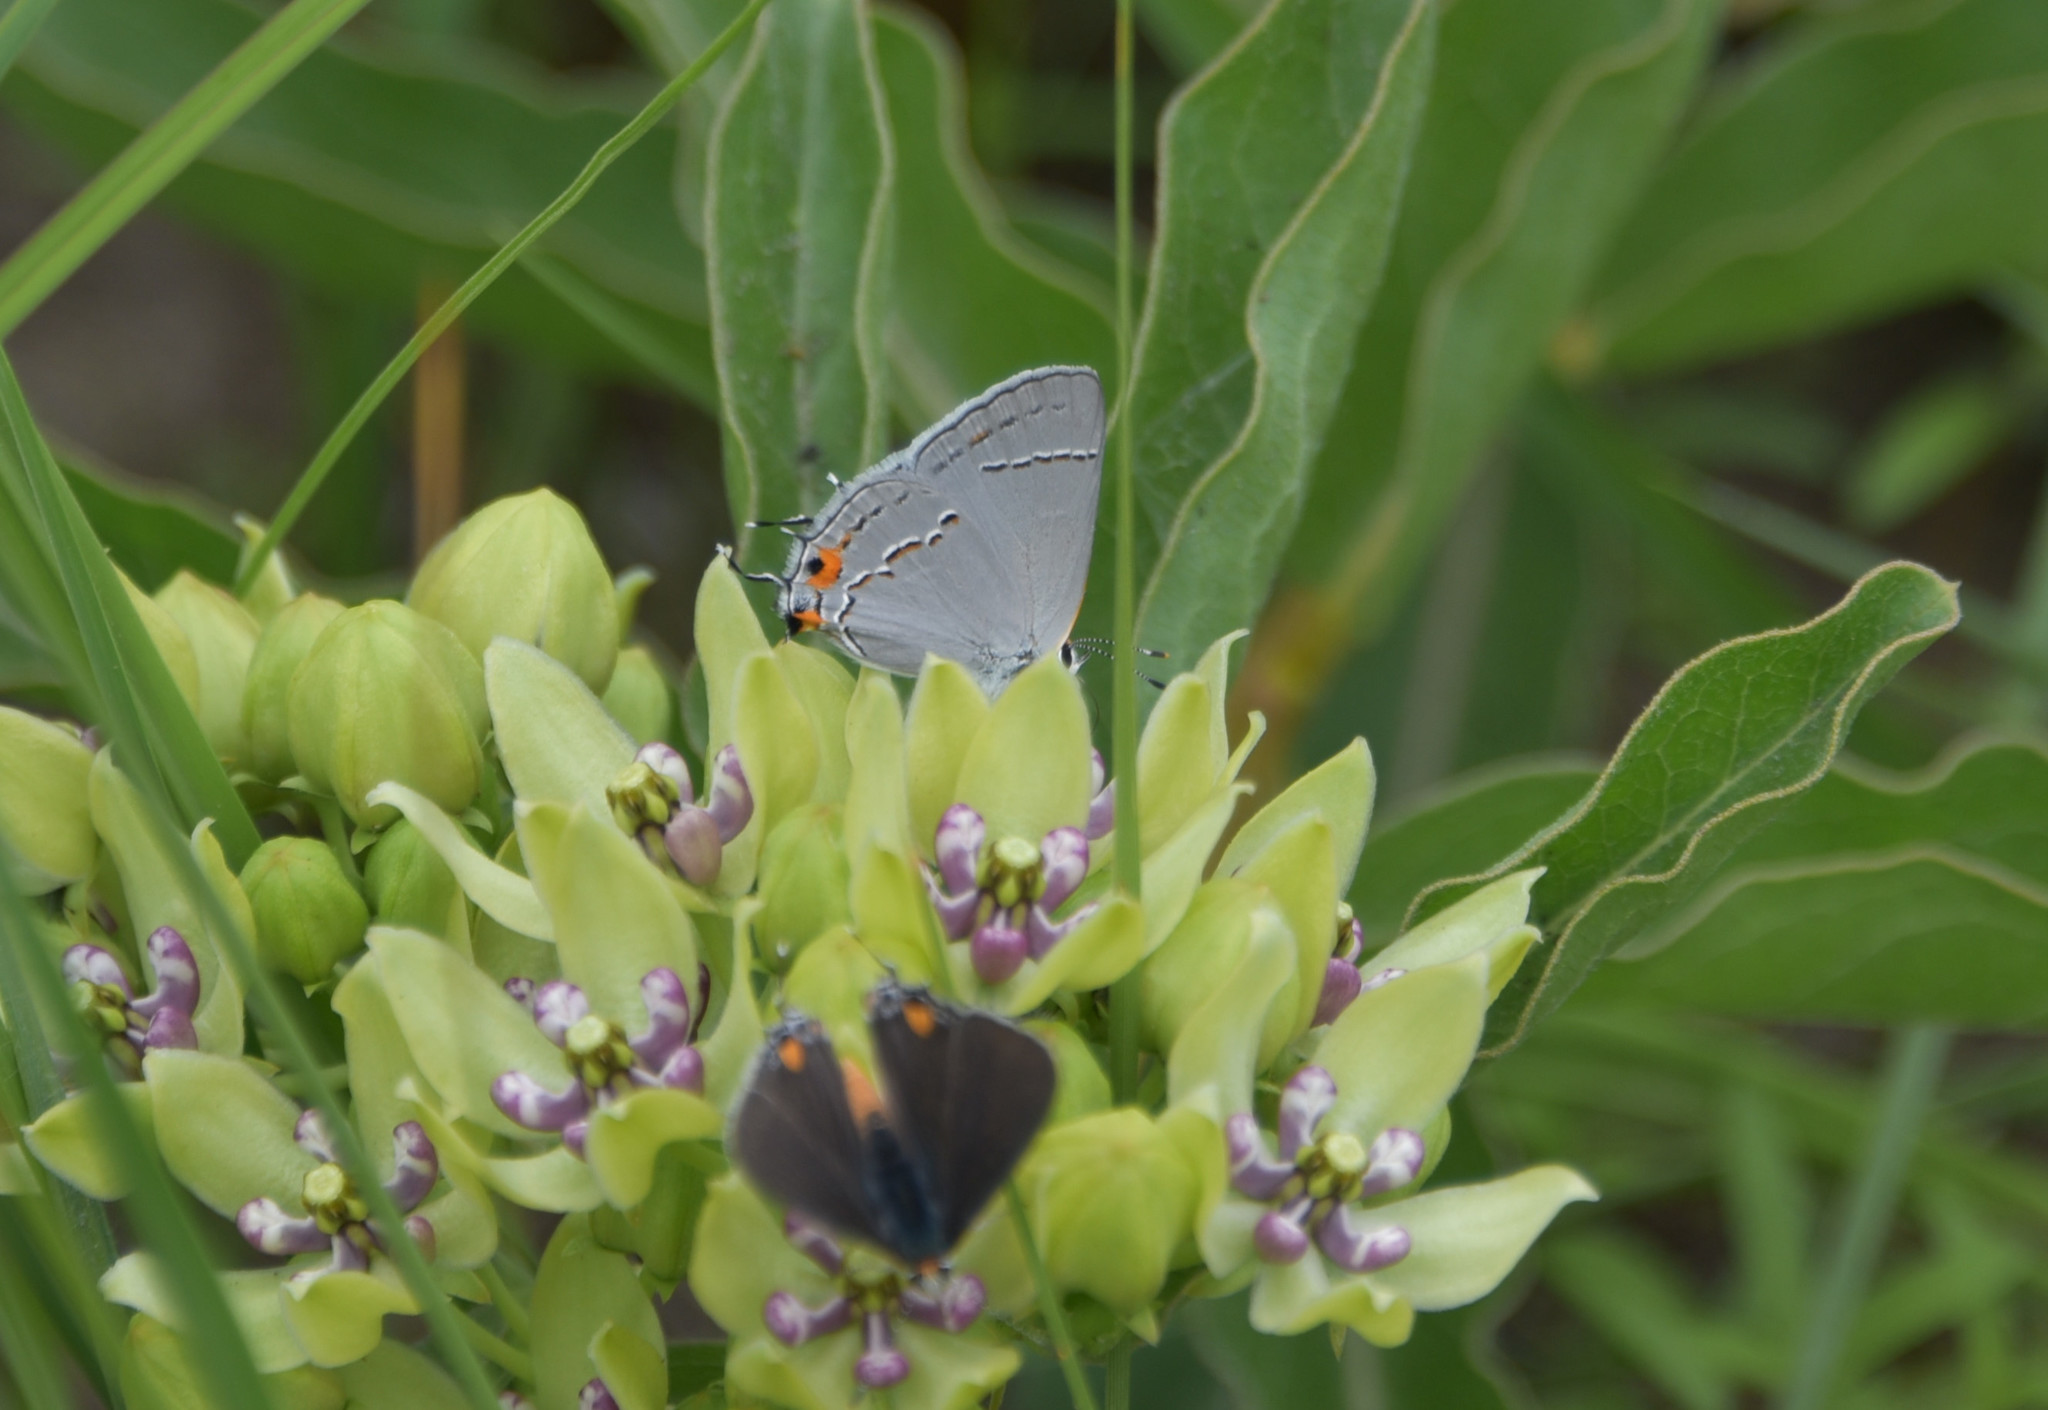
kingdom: Animalia
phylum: Arthropoda
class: Insecta
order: Lepidoptera
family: Lycaenidae
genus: Strymon
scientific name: Strymon melinus
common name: Gray hairstreak
